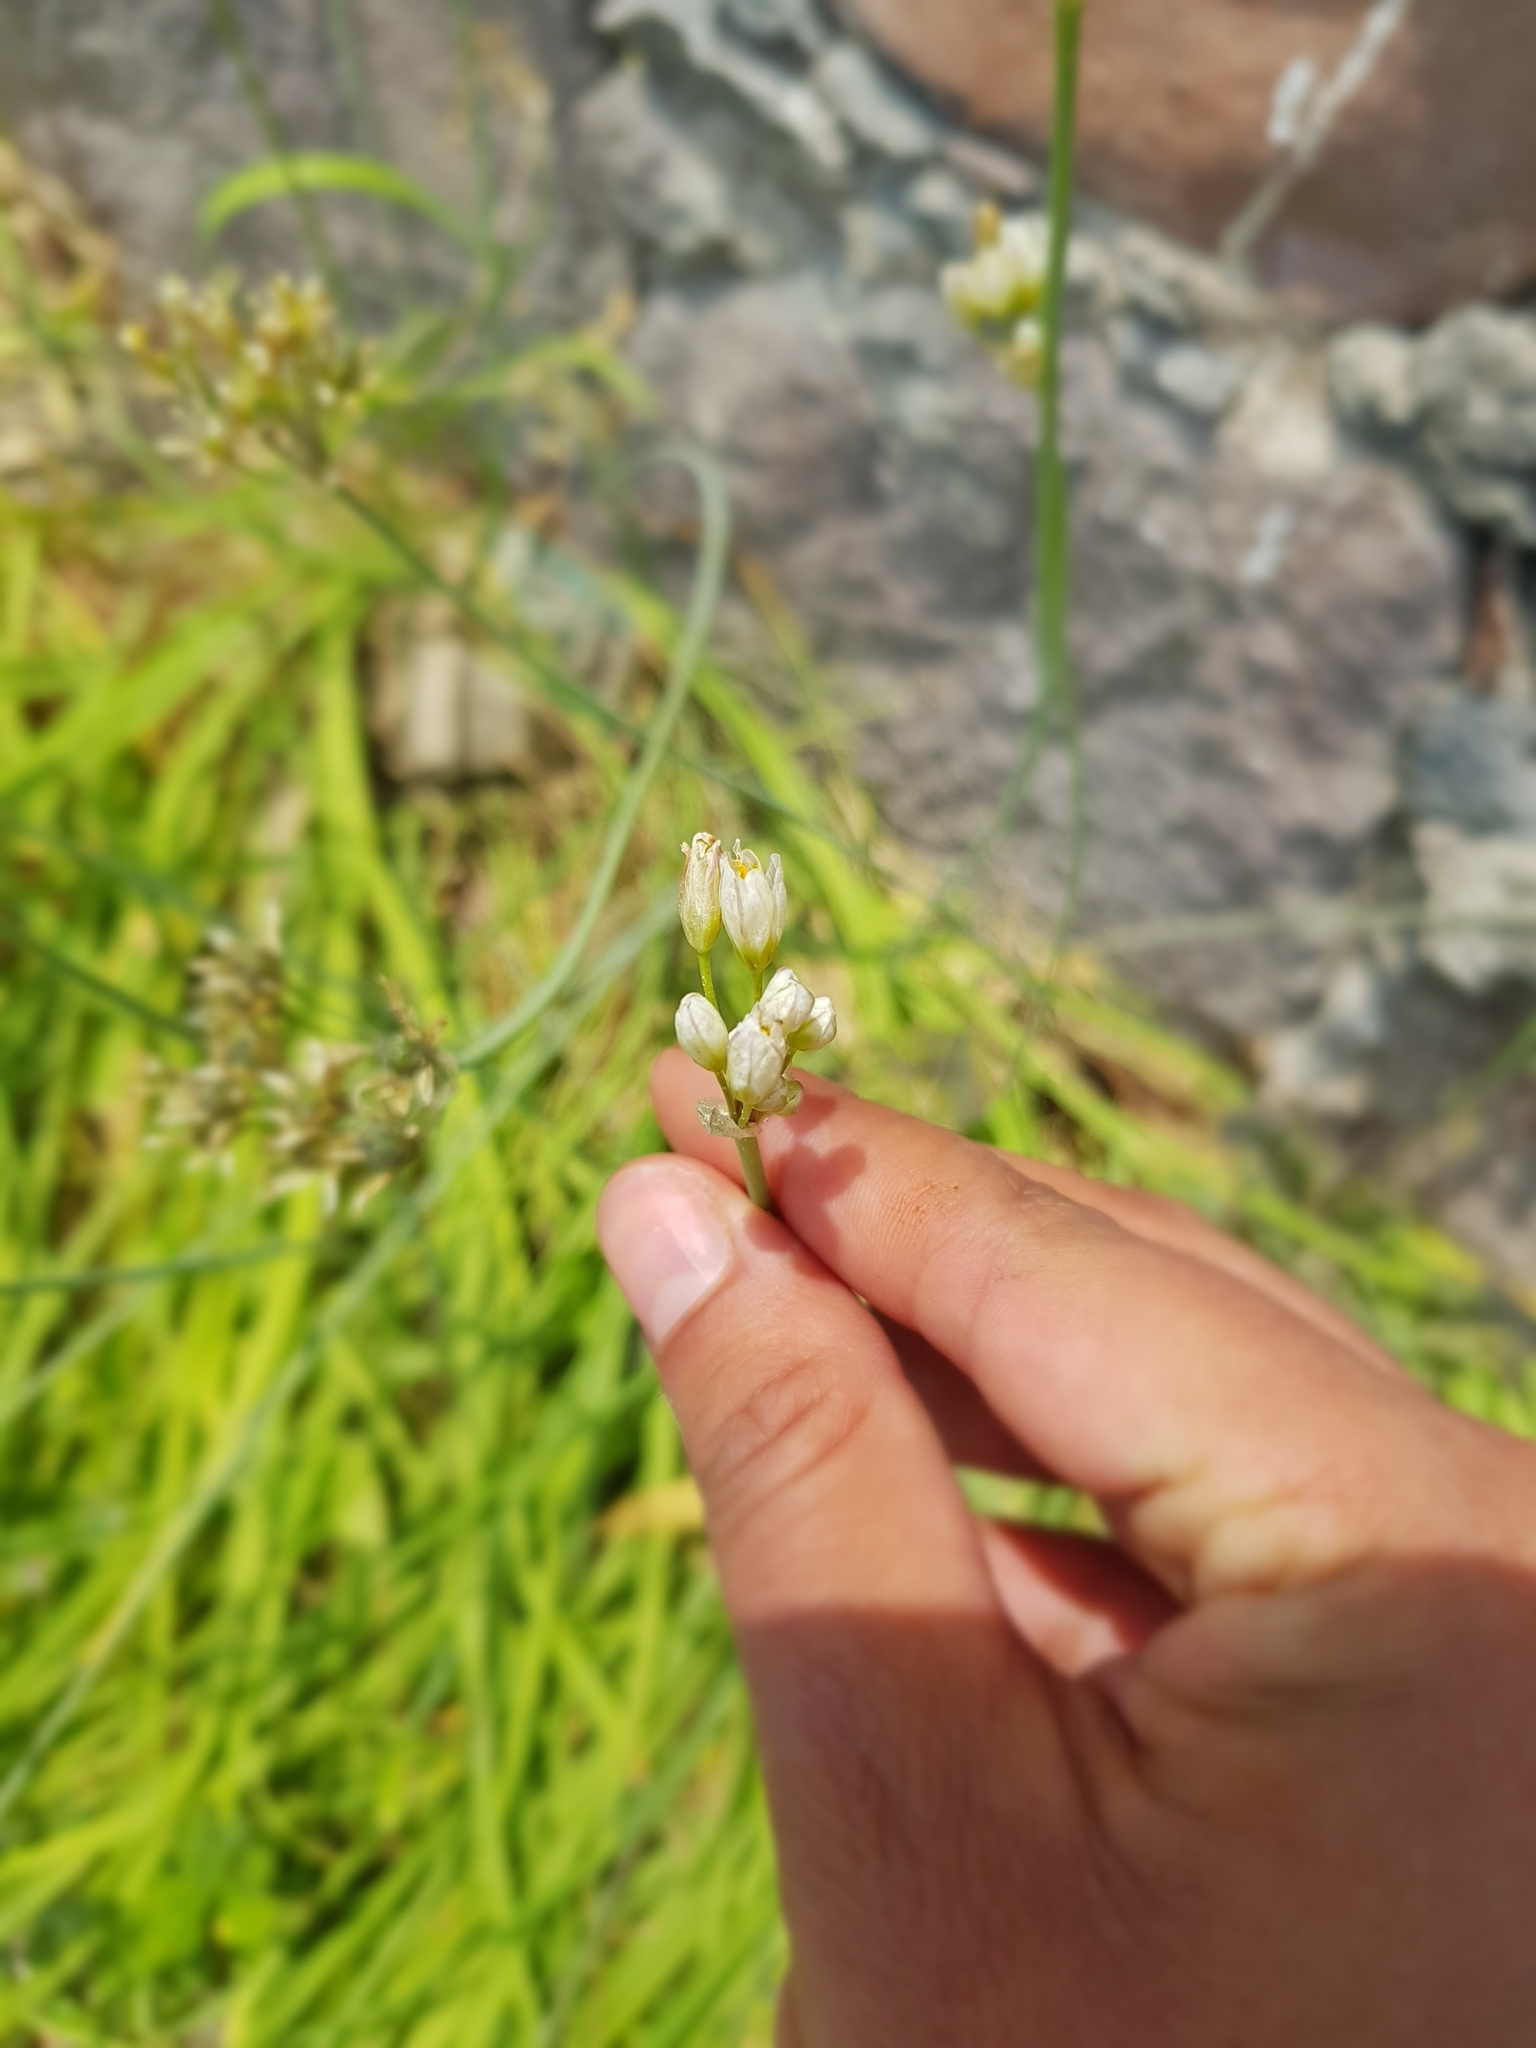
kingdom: Plantae
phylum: Tracheophyta
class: Liliopsida
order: Asparagales
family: Amaryllidaceae
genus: Nothoscordum
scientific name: Nothoscordum gracile
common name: Slender false garlic
